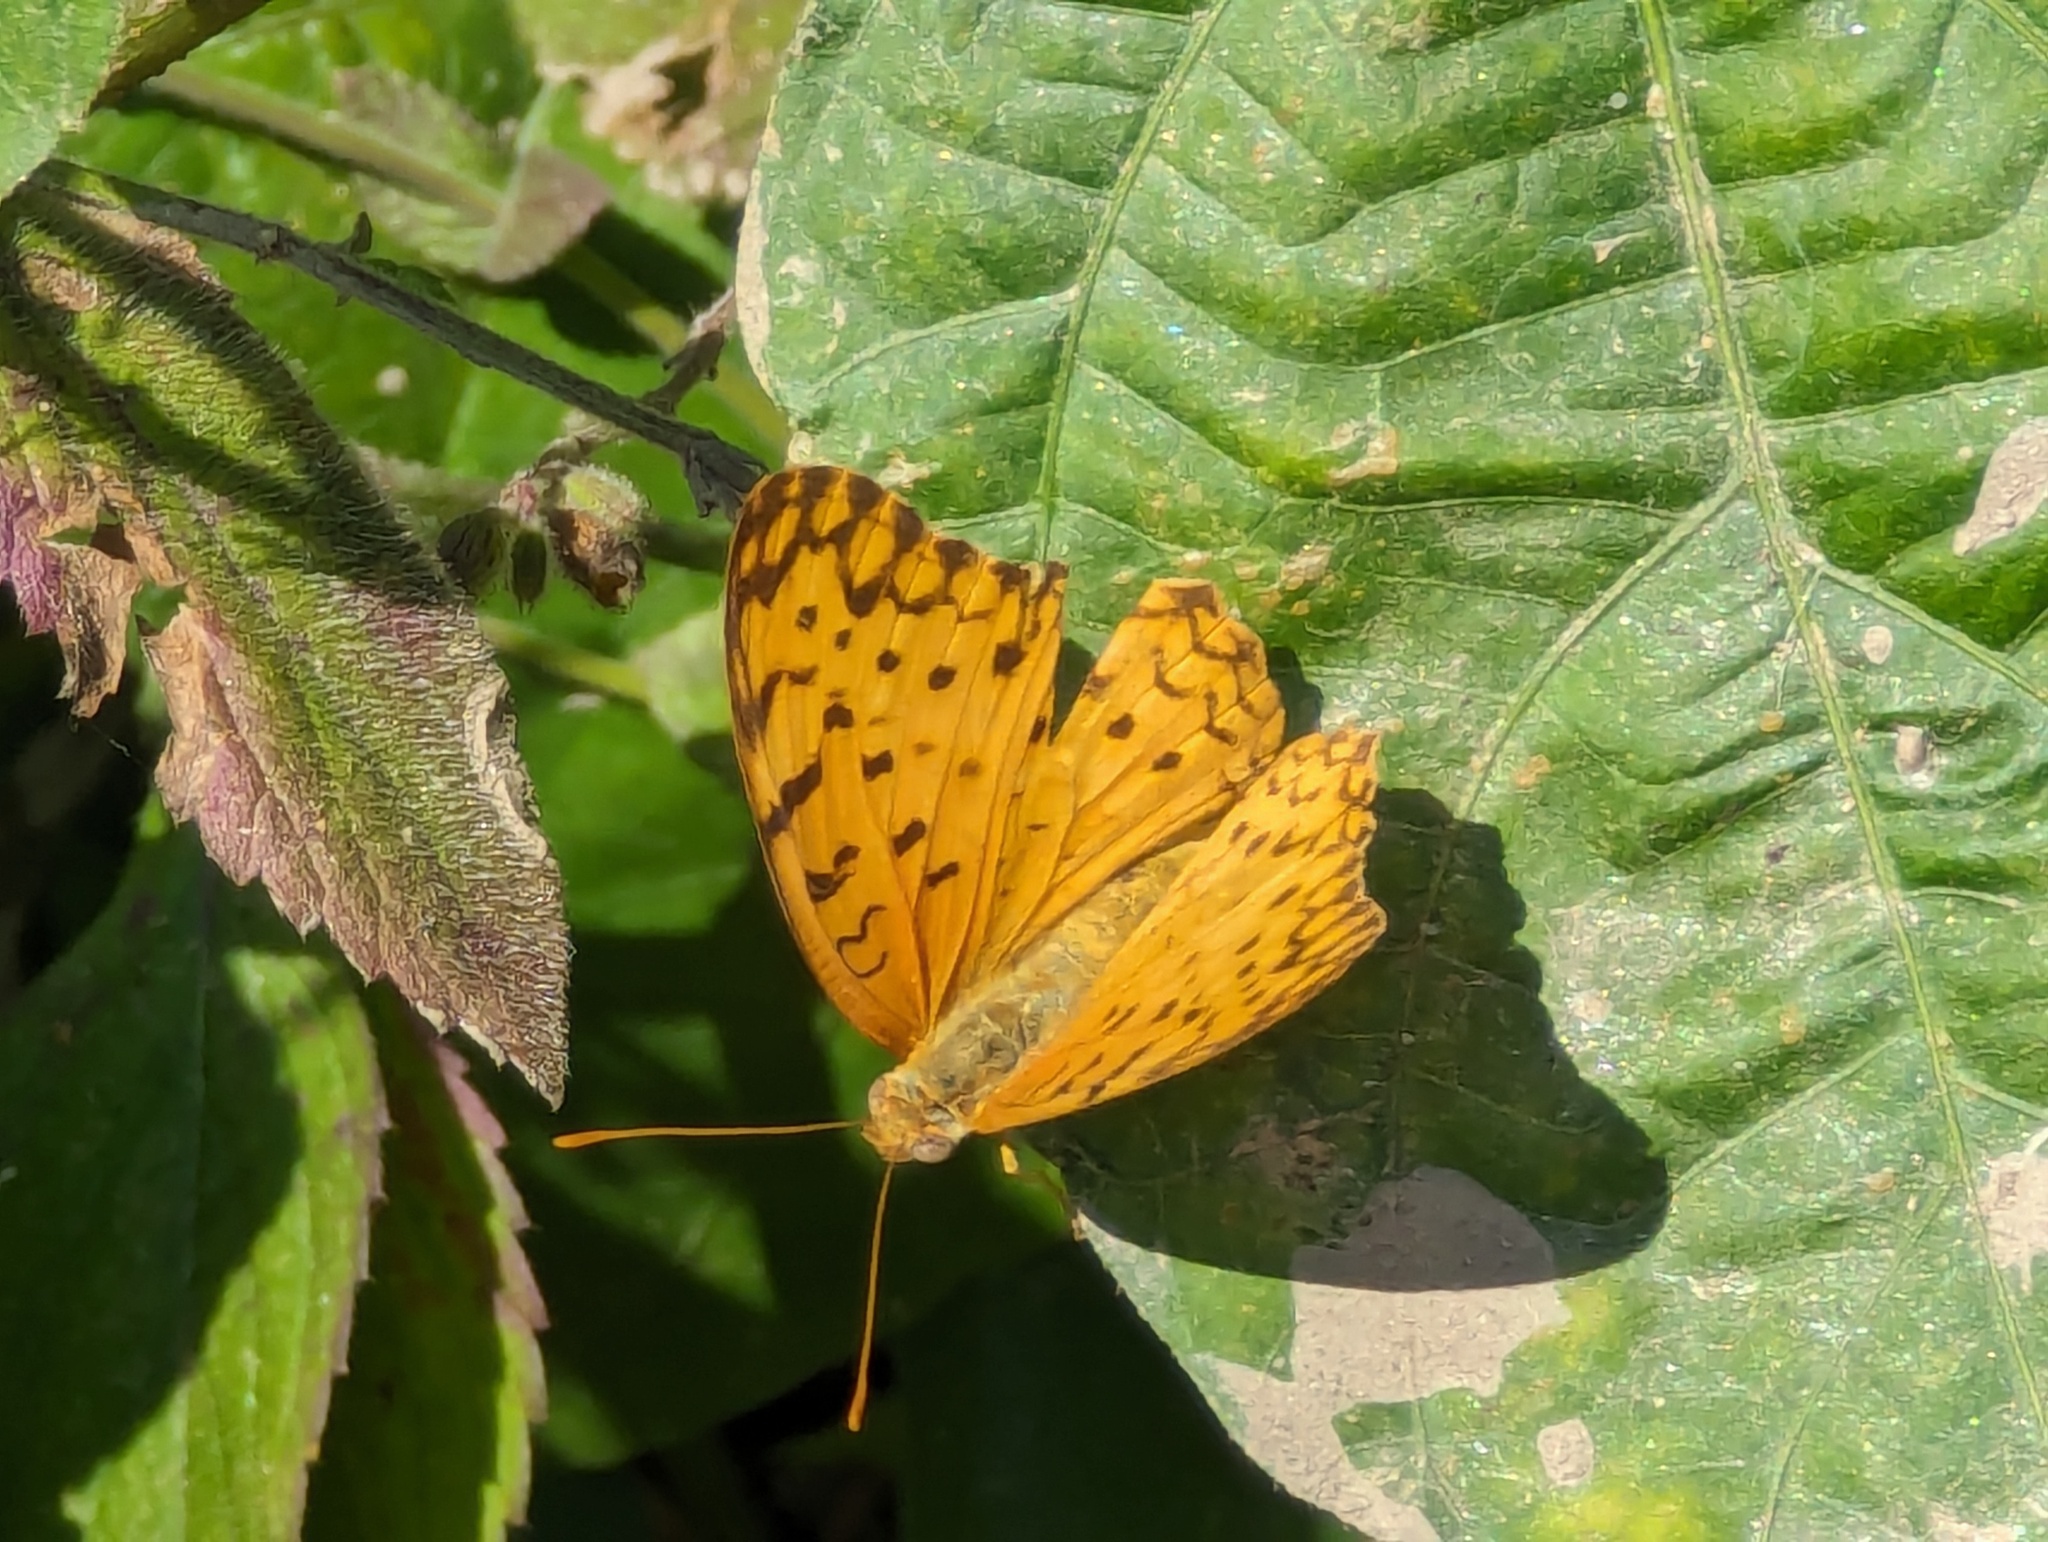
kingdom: Animalia
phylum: Arthropoda
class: Insecta
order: Lepidoptera
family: Nymphalidae
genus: Phalanta
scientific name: Phalanta phalantha
